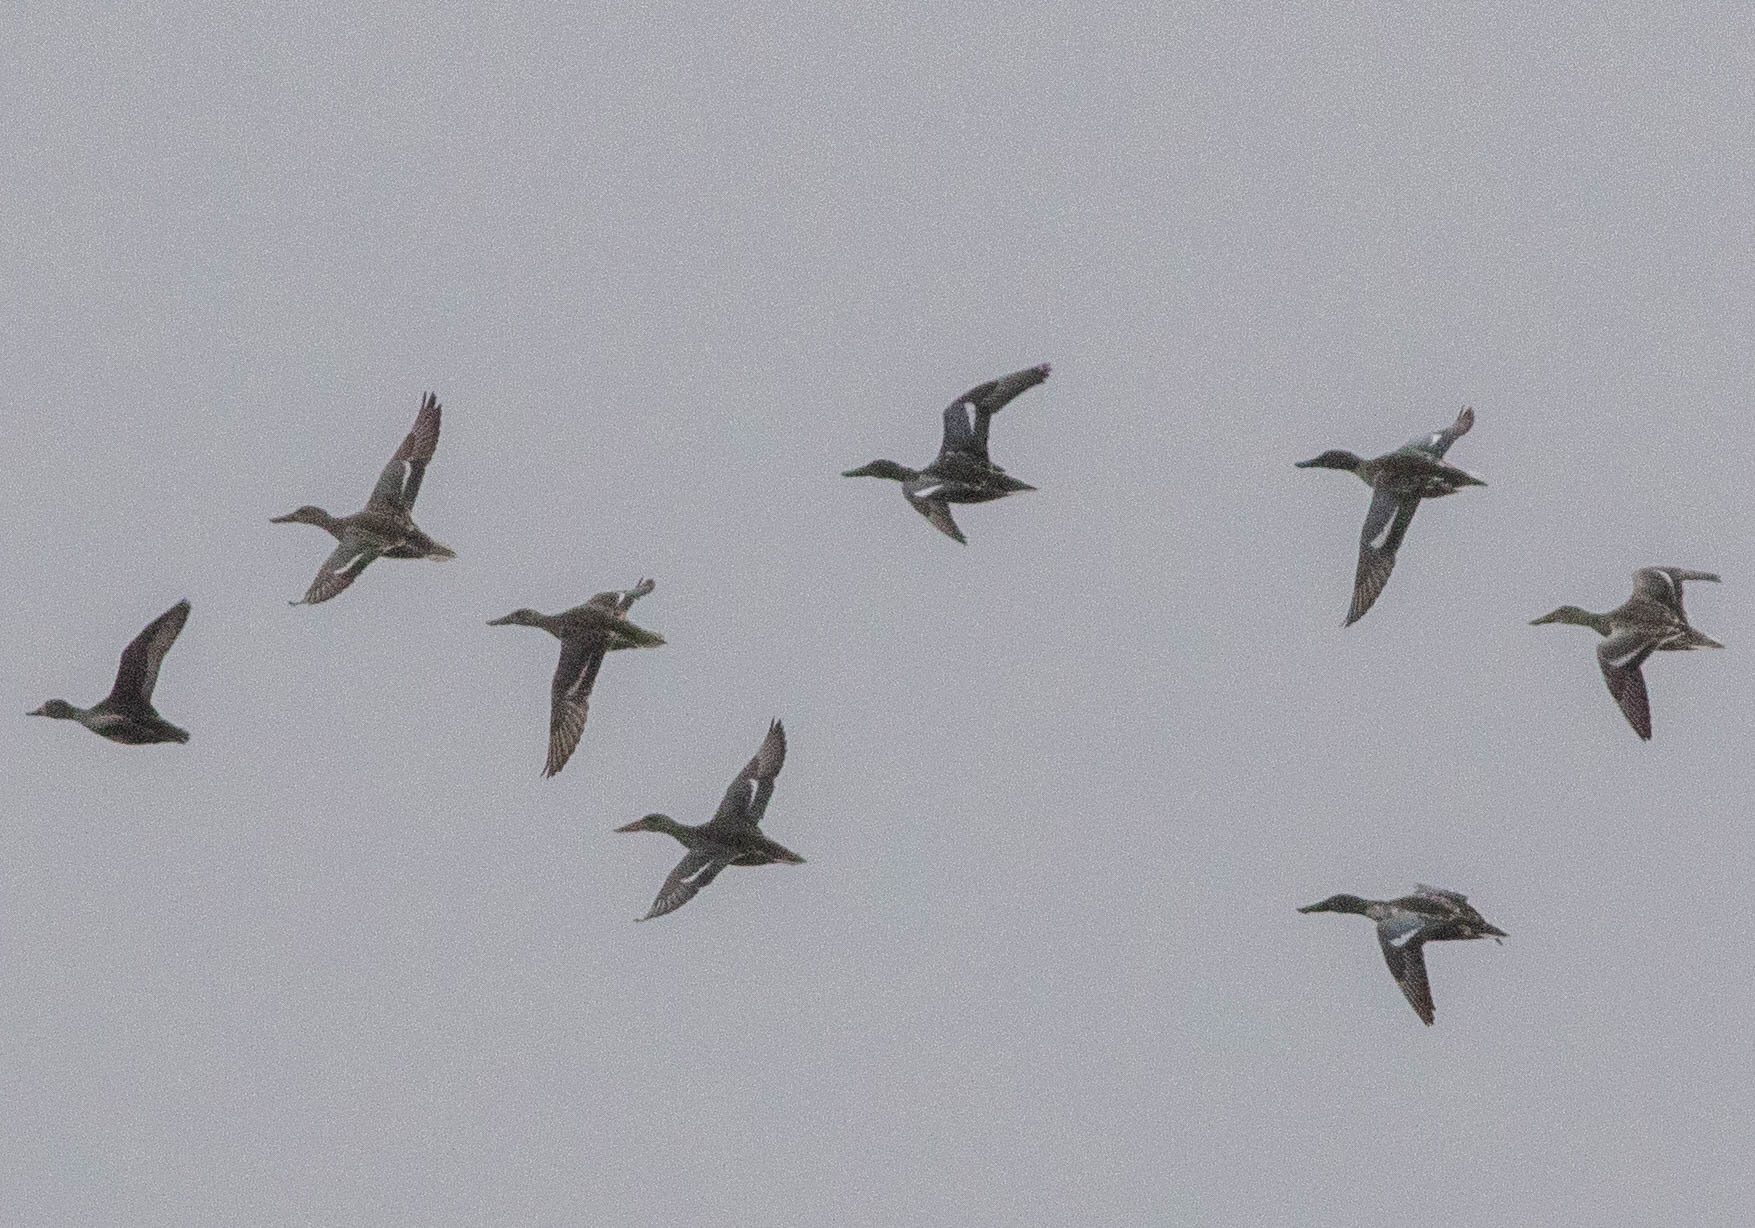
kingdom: Animalia
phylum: Chordata
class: Aves
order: Anseriformes
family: Anatidae
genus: Spatula
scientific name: Spatula clypeata
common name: Northern shoveler
